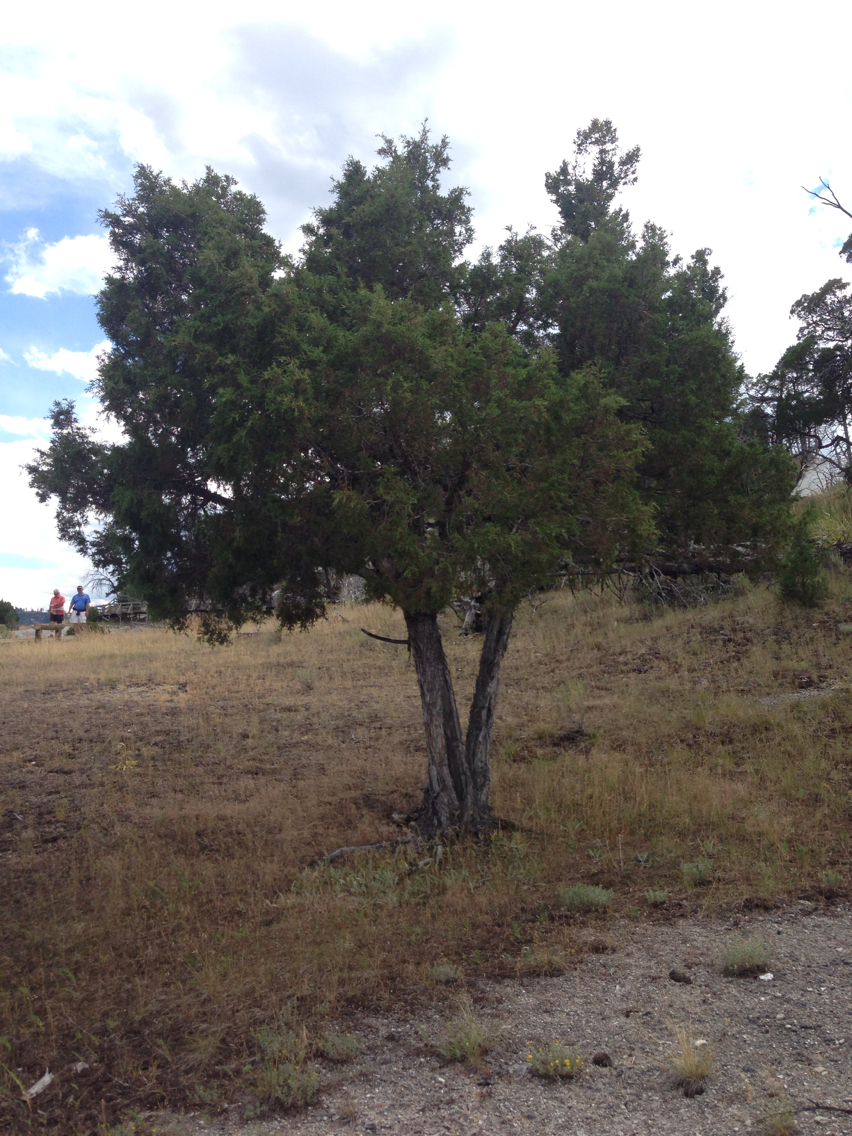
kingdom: Plantae
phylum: Tracheophyta
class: Pinopsida
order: Pinales
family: Cupressaceae
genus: Juniperus
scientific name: Juniperus scopulorum
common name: Rocky mountain juniper
